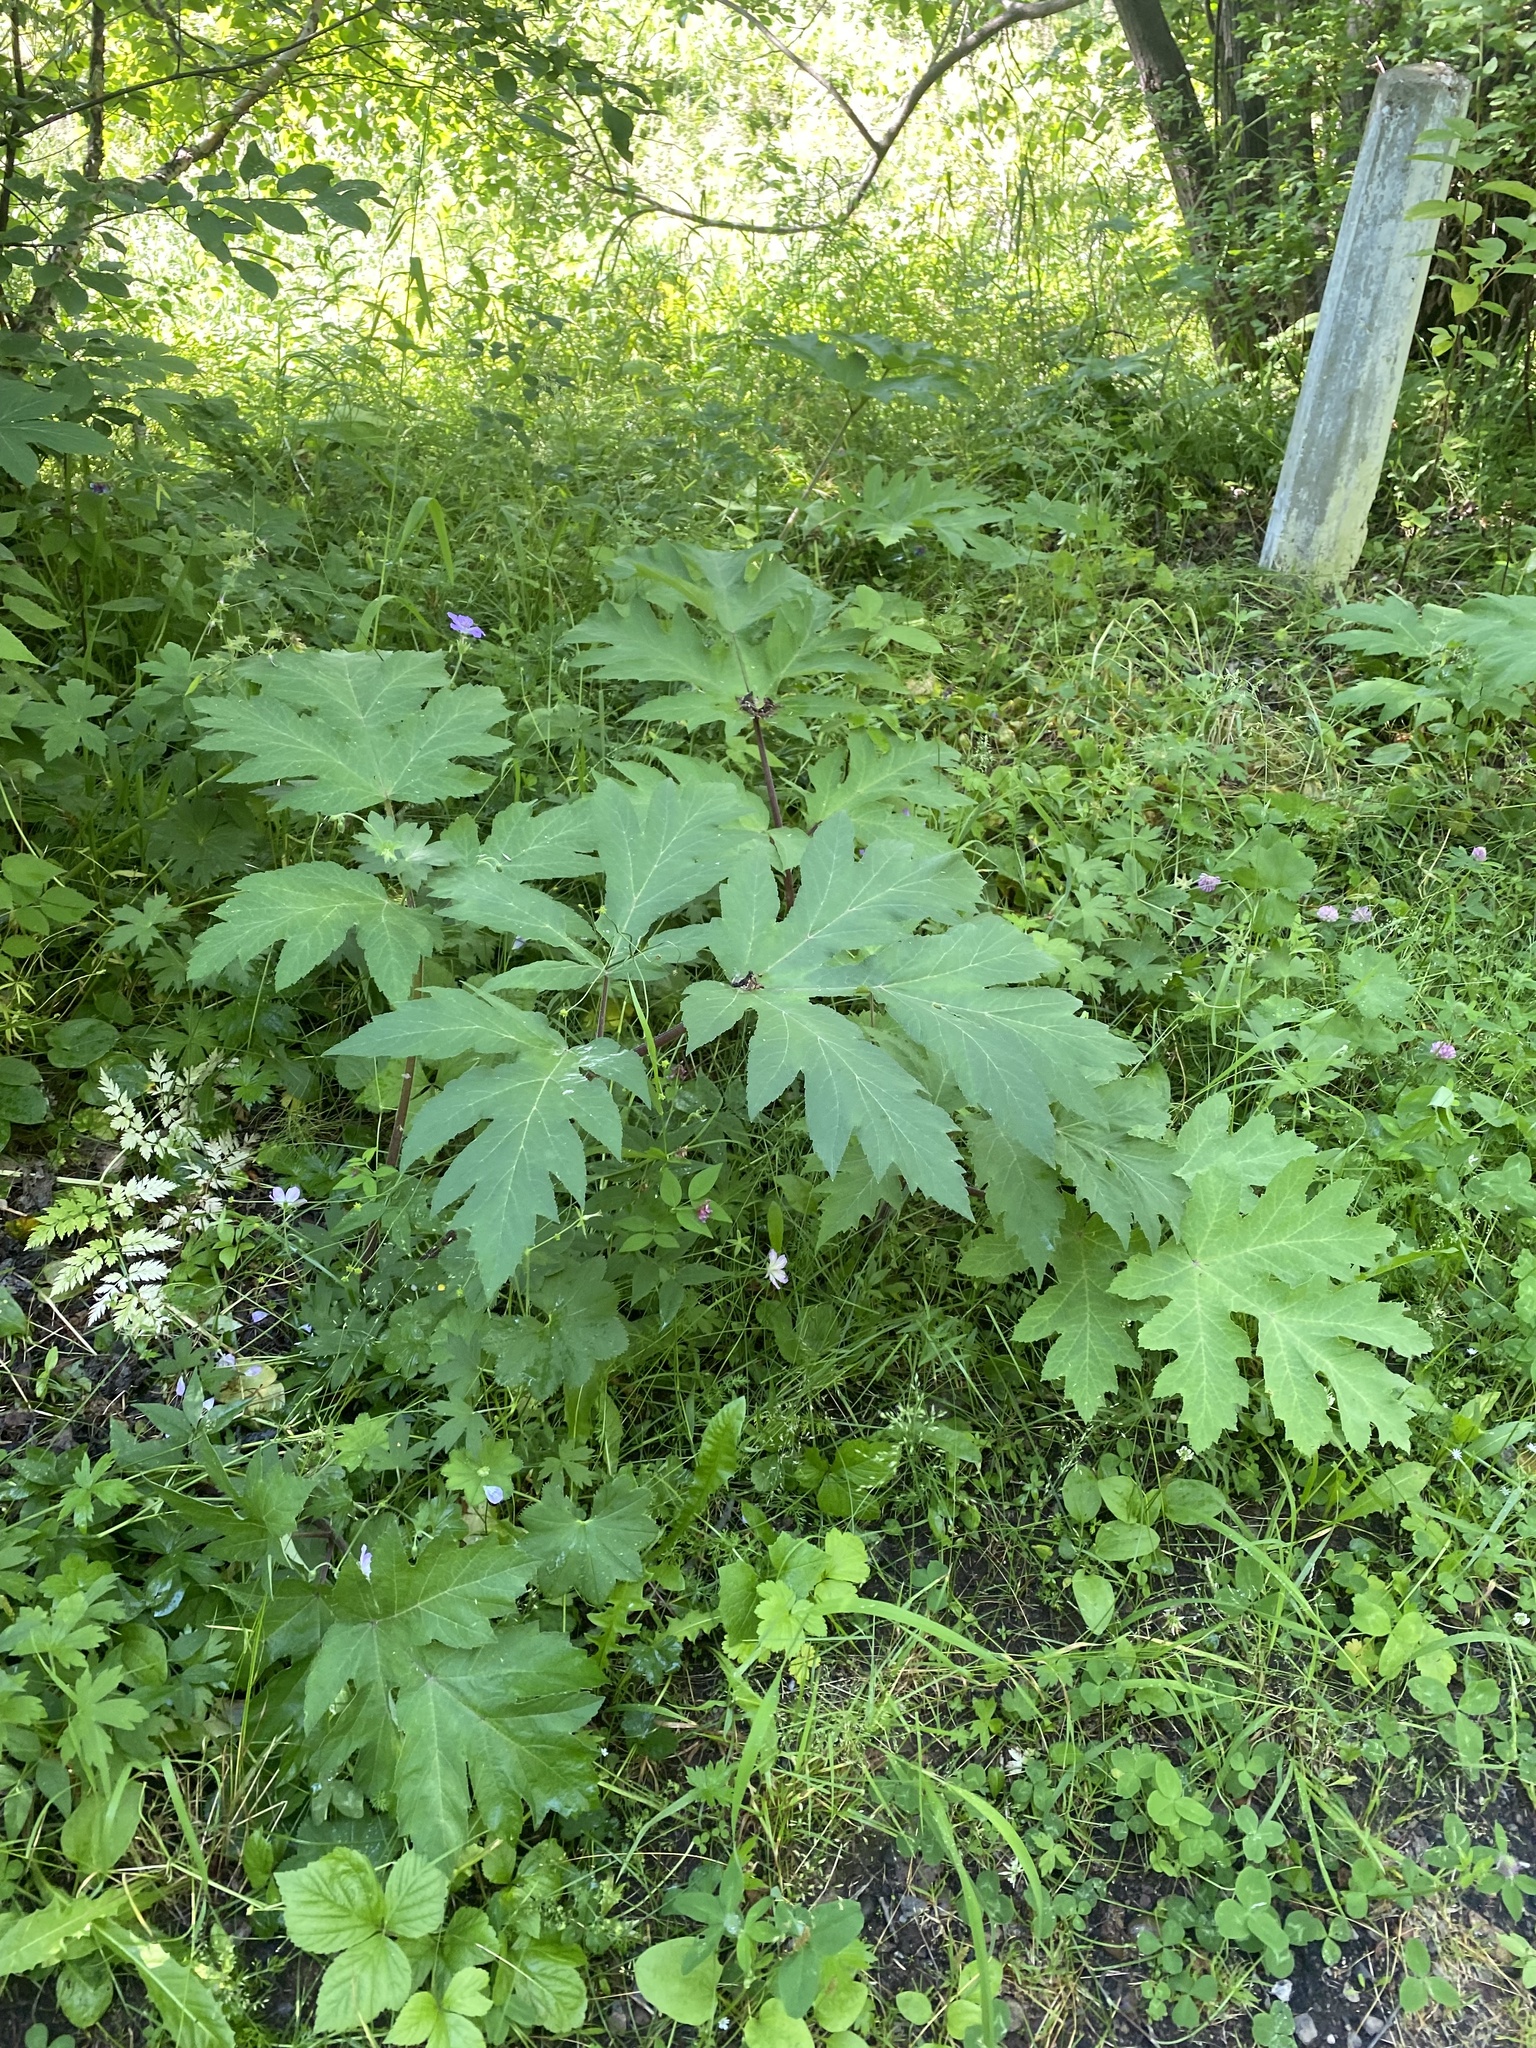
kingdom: Plantae
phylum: Tracheophyta
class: Magnoliopsida
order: Apiales
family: Apiaceae
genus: Heracleum
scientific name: Heracleum dissectum
